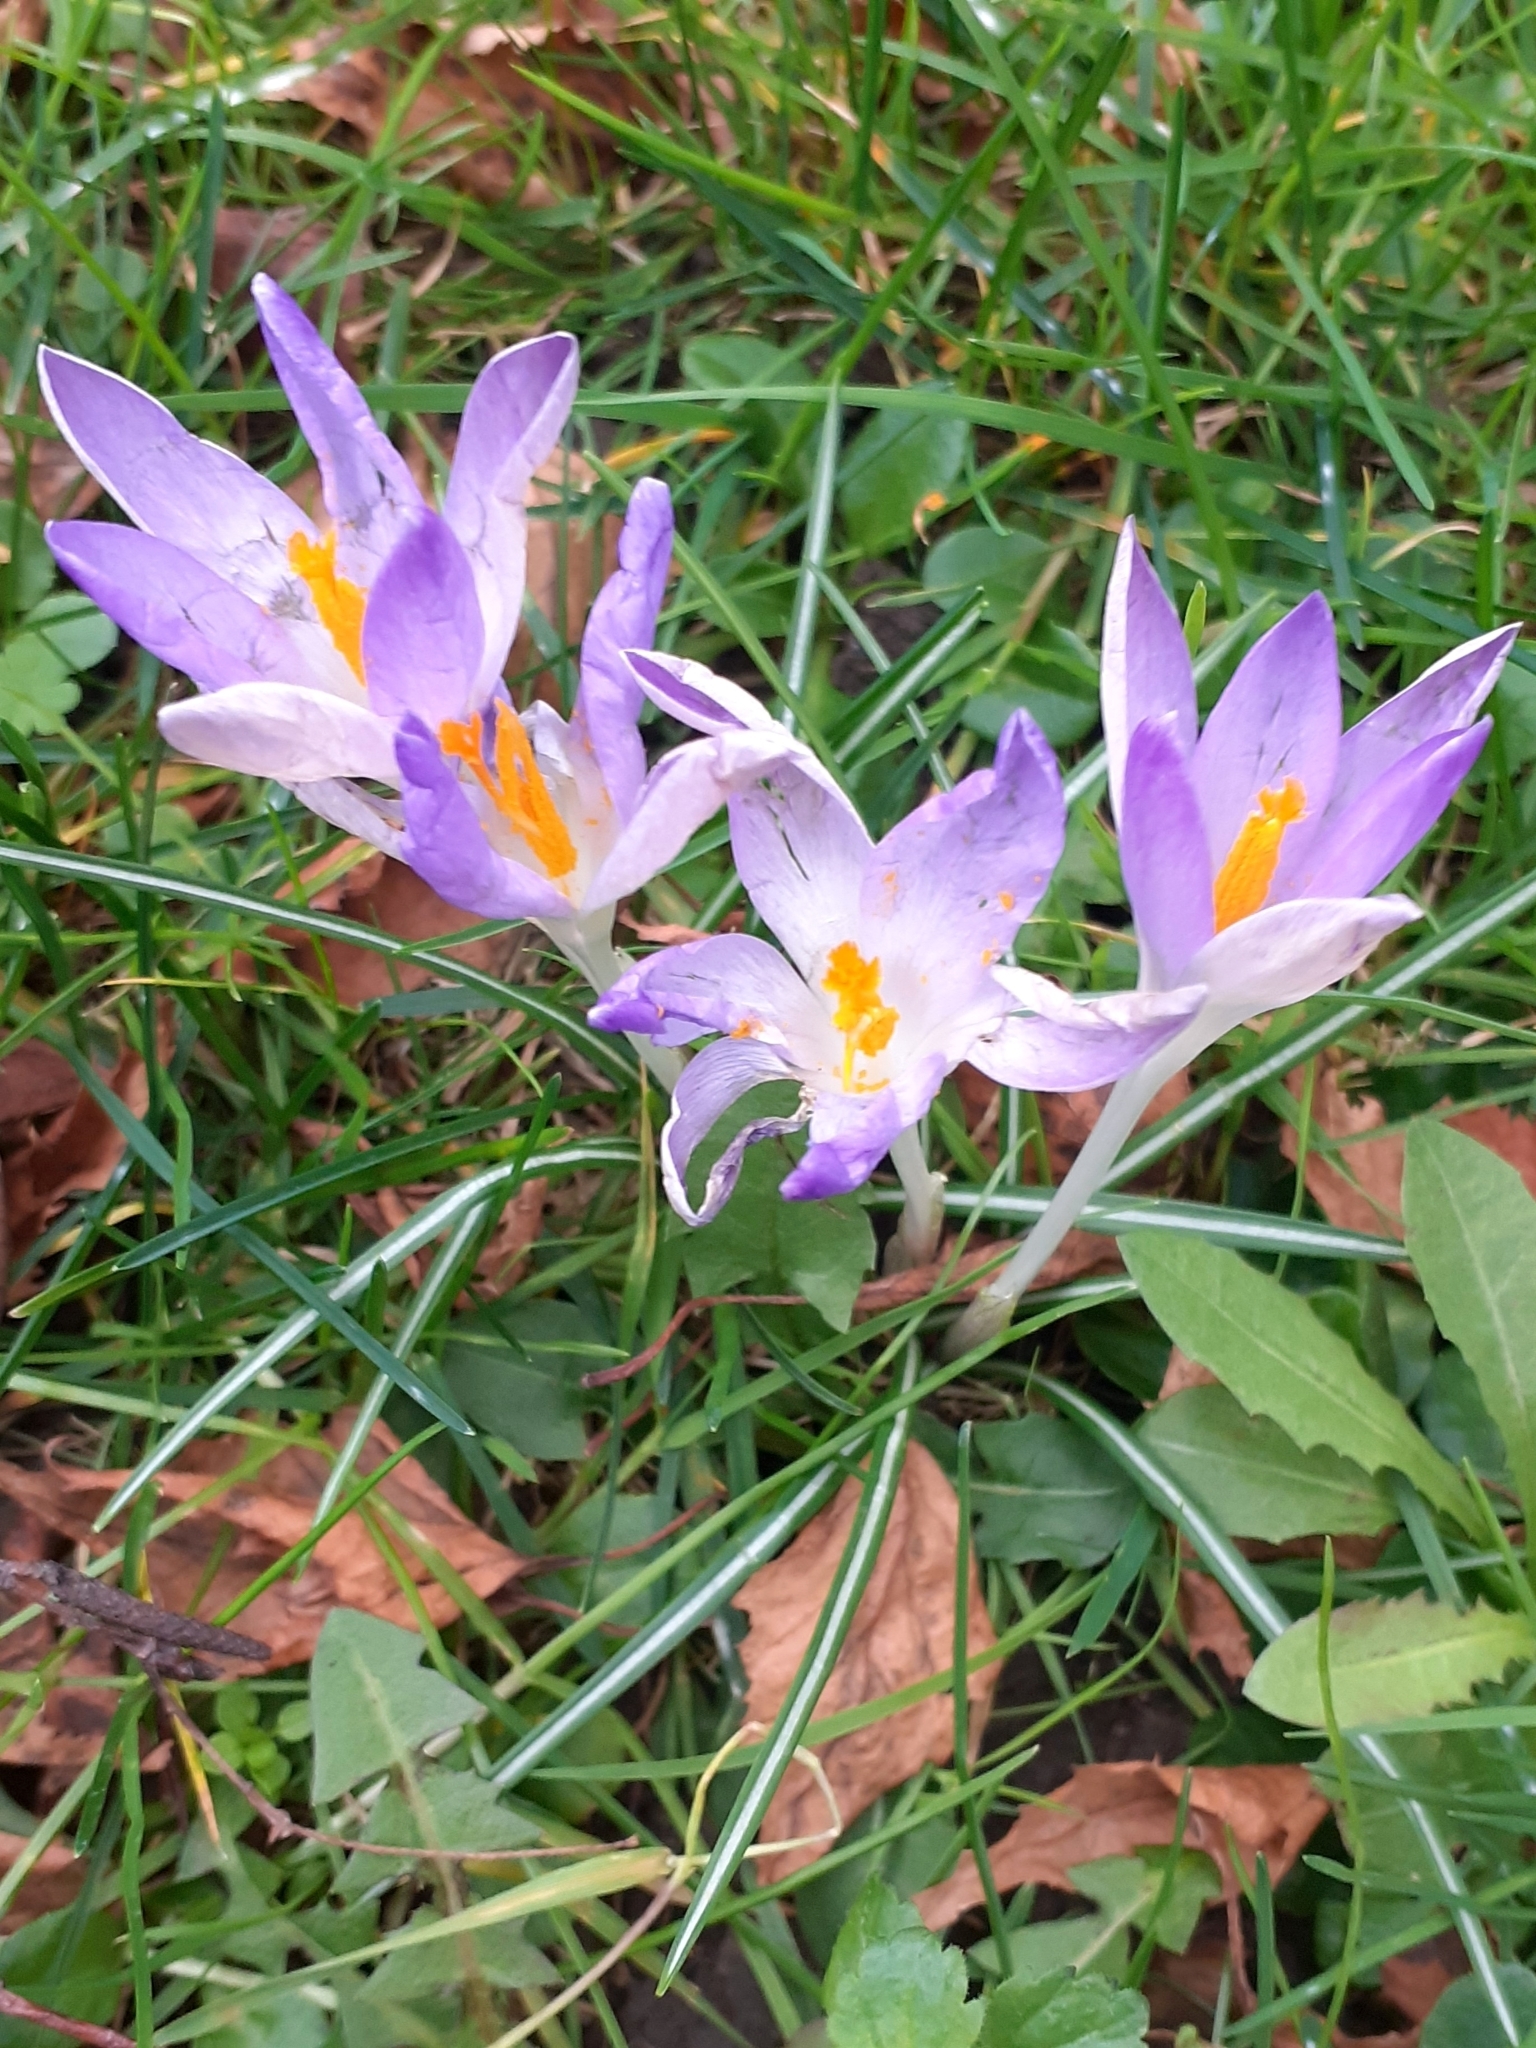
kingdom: Plantae
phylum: Tracheophyta
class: Liliopsida
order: Asparagales
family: Iridaceae
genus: Crocus
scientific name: Crocus tommasinianus
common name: Early crocus
